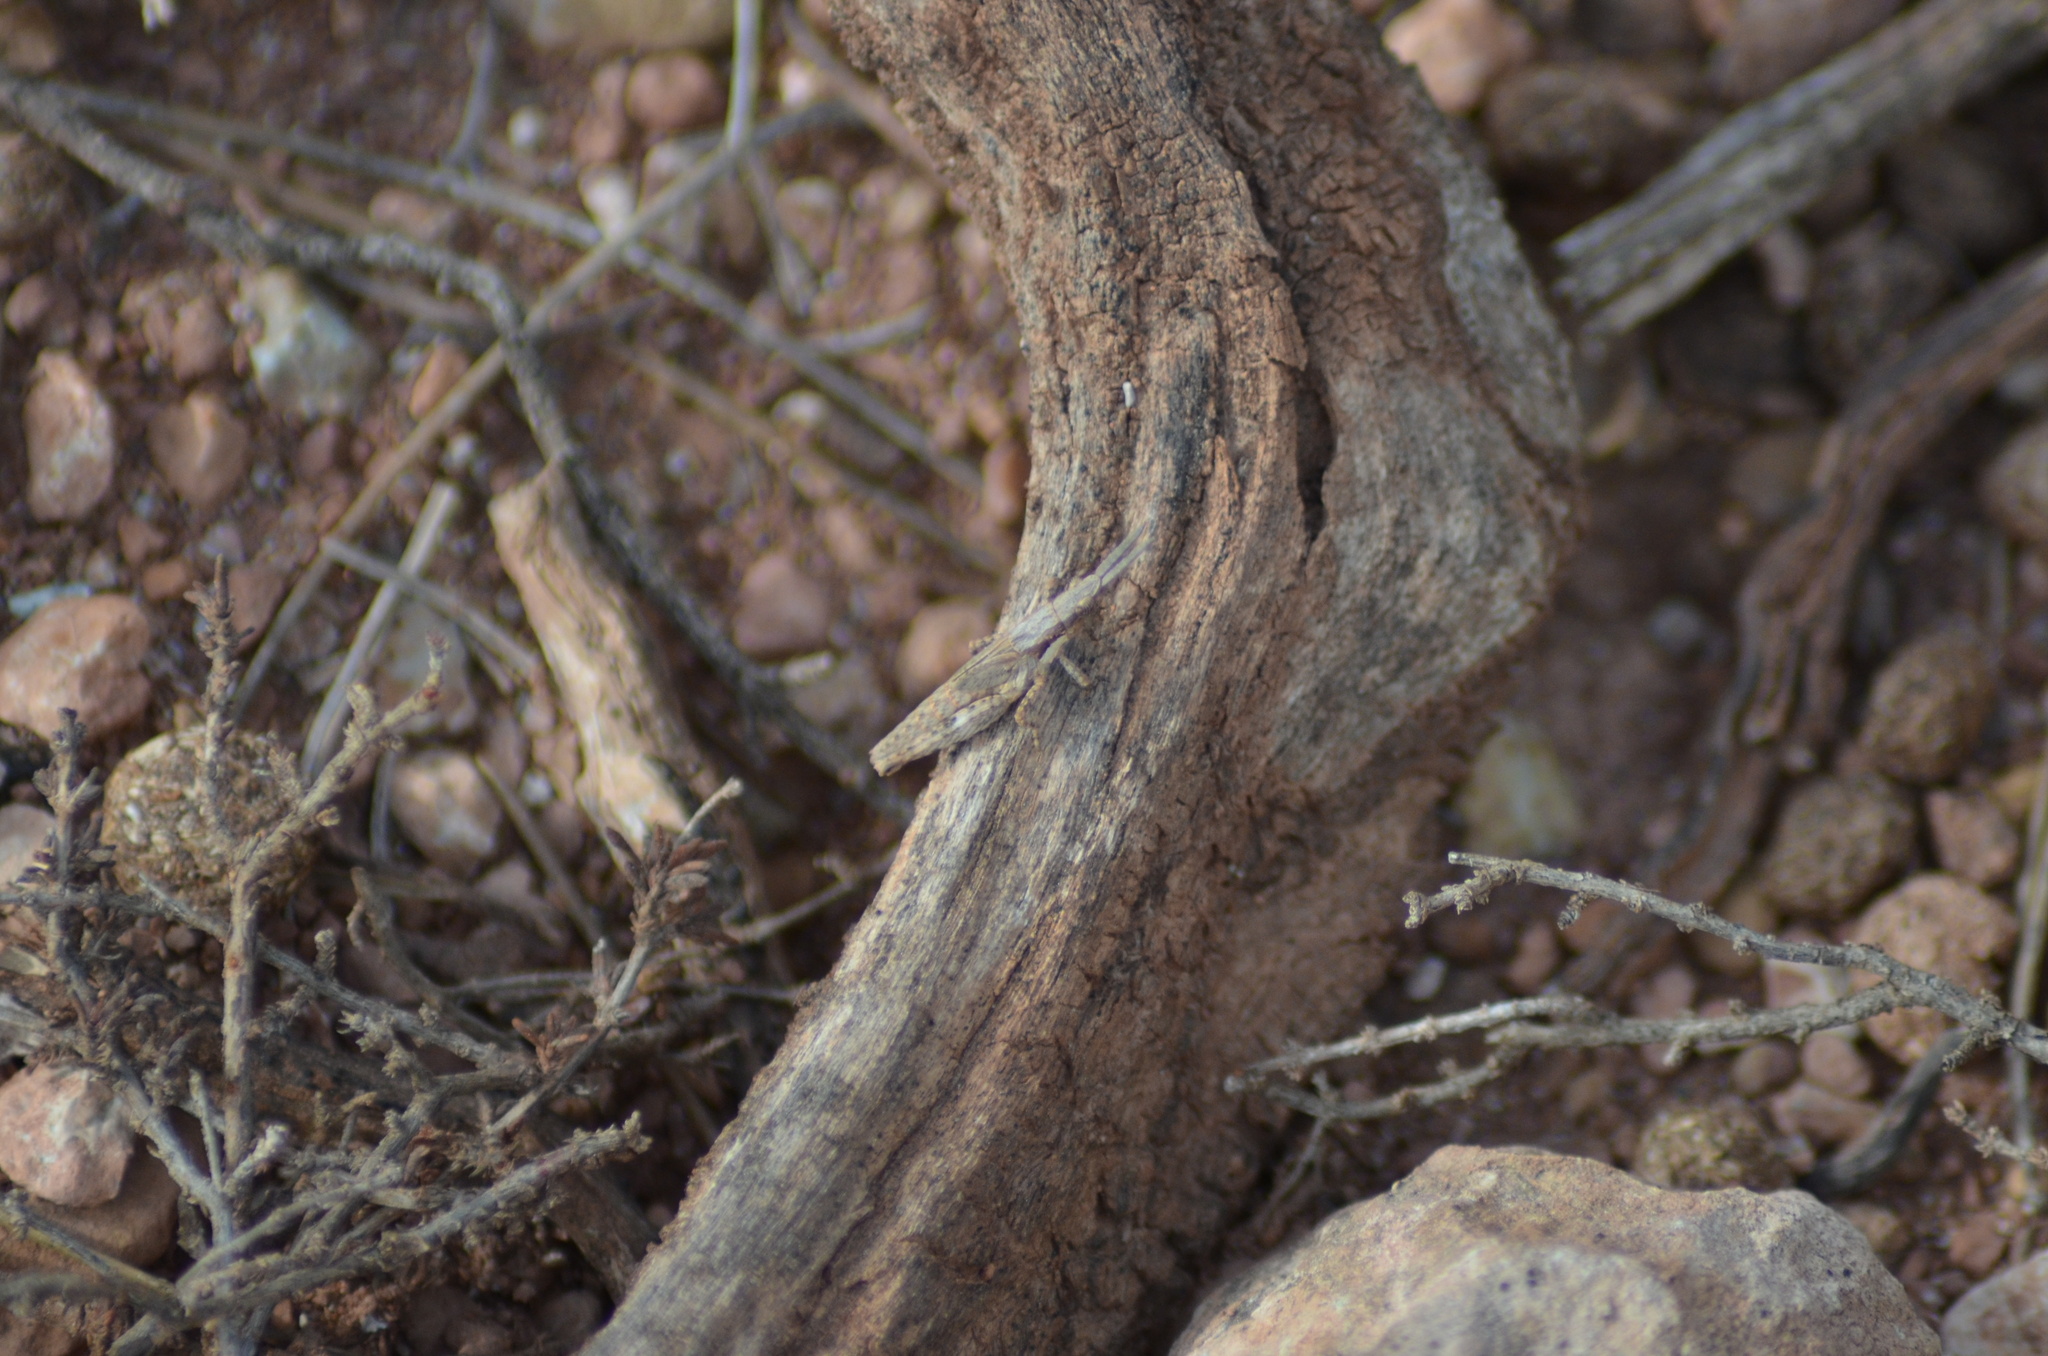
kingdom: Animalia
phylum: Arthropoda
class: Insecta
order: Orthoptera
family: Pyrgomorphidae
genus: Pyrgomorpha
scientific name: Pyrgomorpha conica
